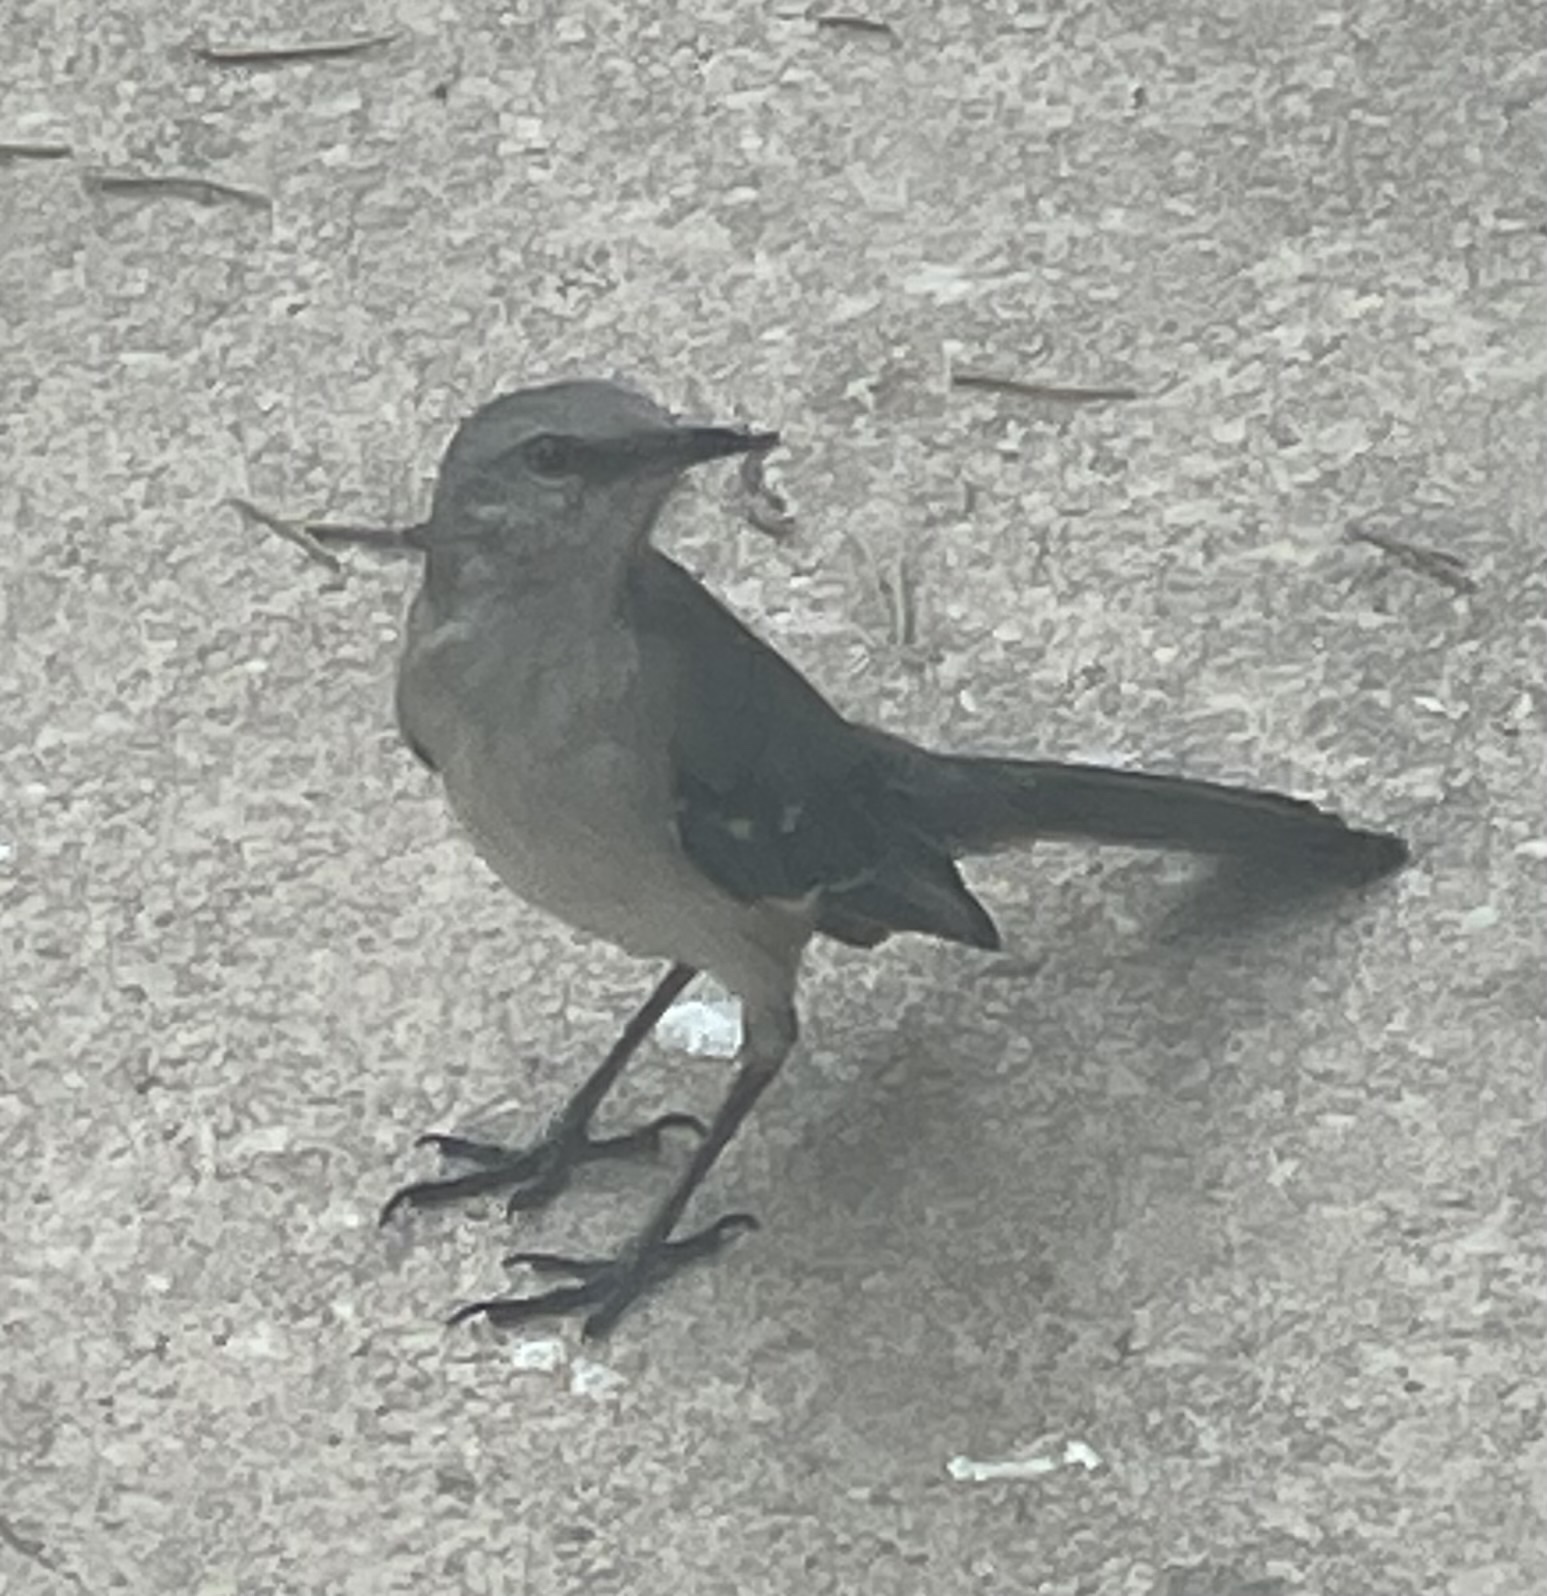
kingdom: Animalia
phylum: Chordata
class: Aves
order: Passeriformes
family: Mimidae
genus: Mimus
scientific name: Mimus polyglottos
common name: Northern mockingbird
